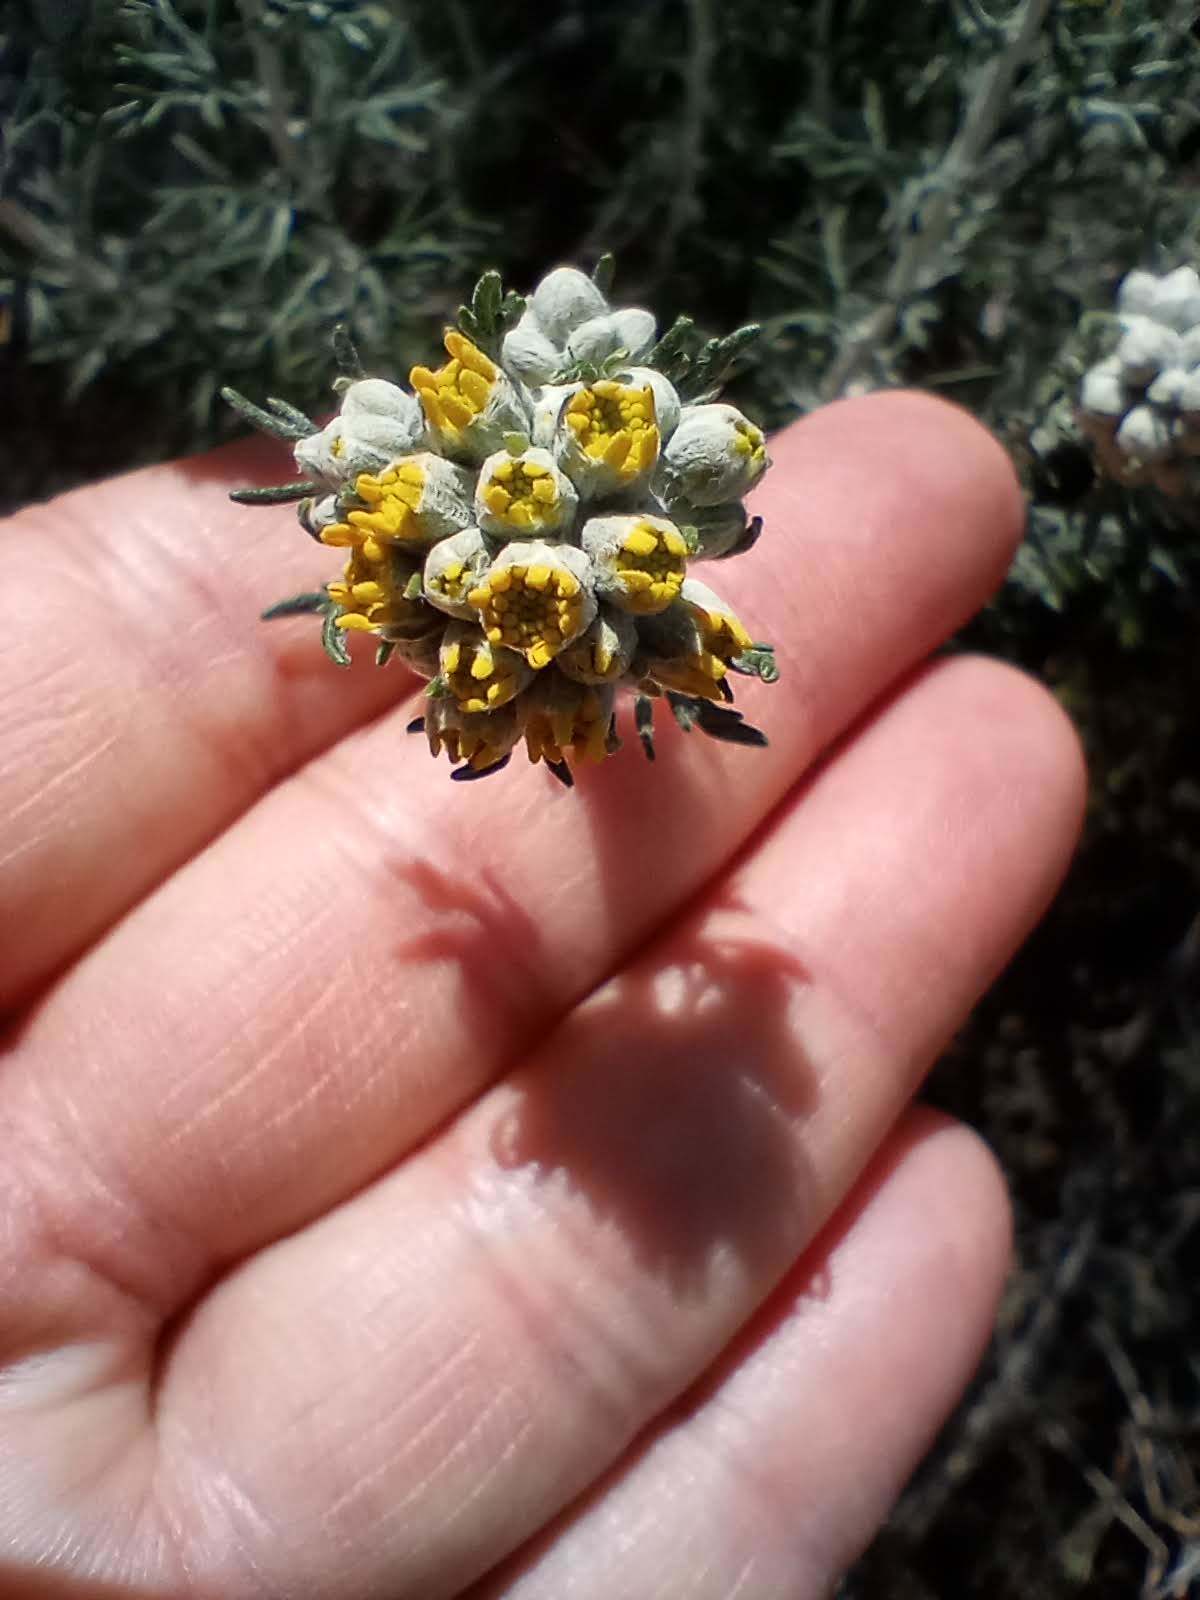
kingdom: Plantae
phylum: Tracheophyta
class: Magnoliopsida
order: Asterales
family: Asteraceae
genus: Eriophyllum
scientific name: Eriophyllum confertiflorum
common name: Golden-yarrow
